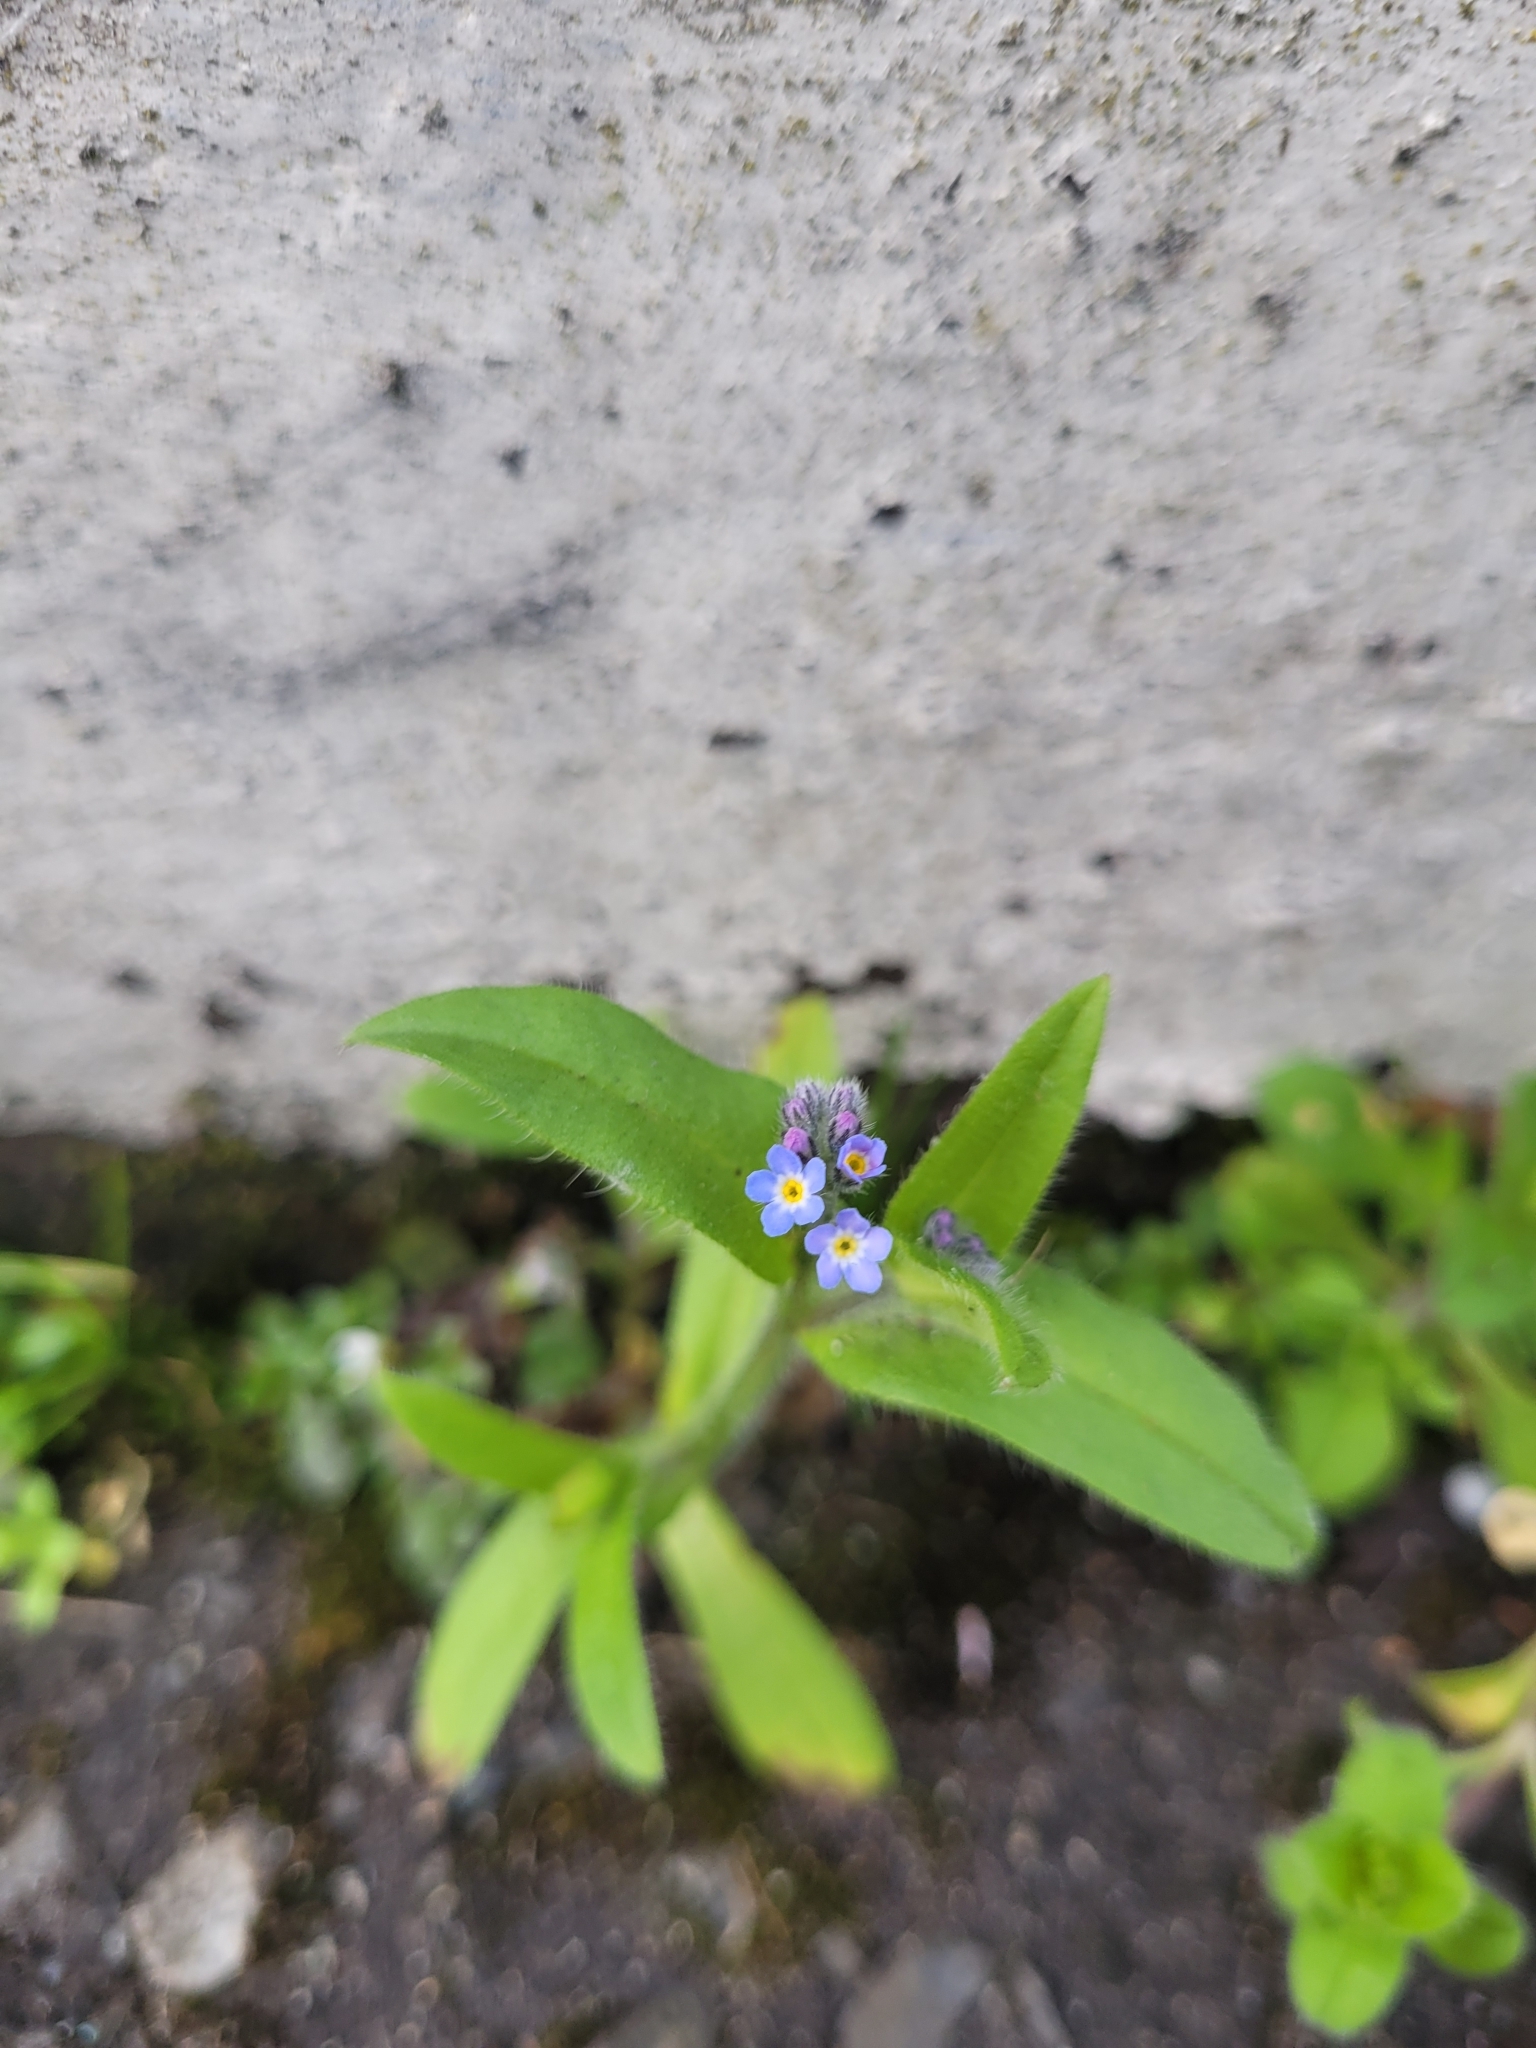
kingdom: Plantae
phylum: Tracheophyta
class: Magnoliopsida
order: Boraginales
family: Boraginaceae
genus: Myosotis
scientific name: Myosotis arvensis
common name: Field forget-me-not
